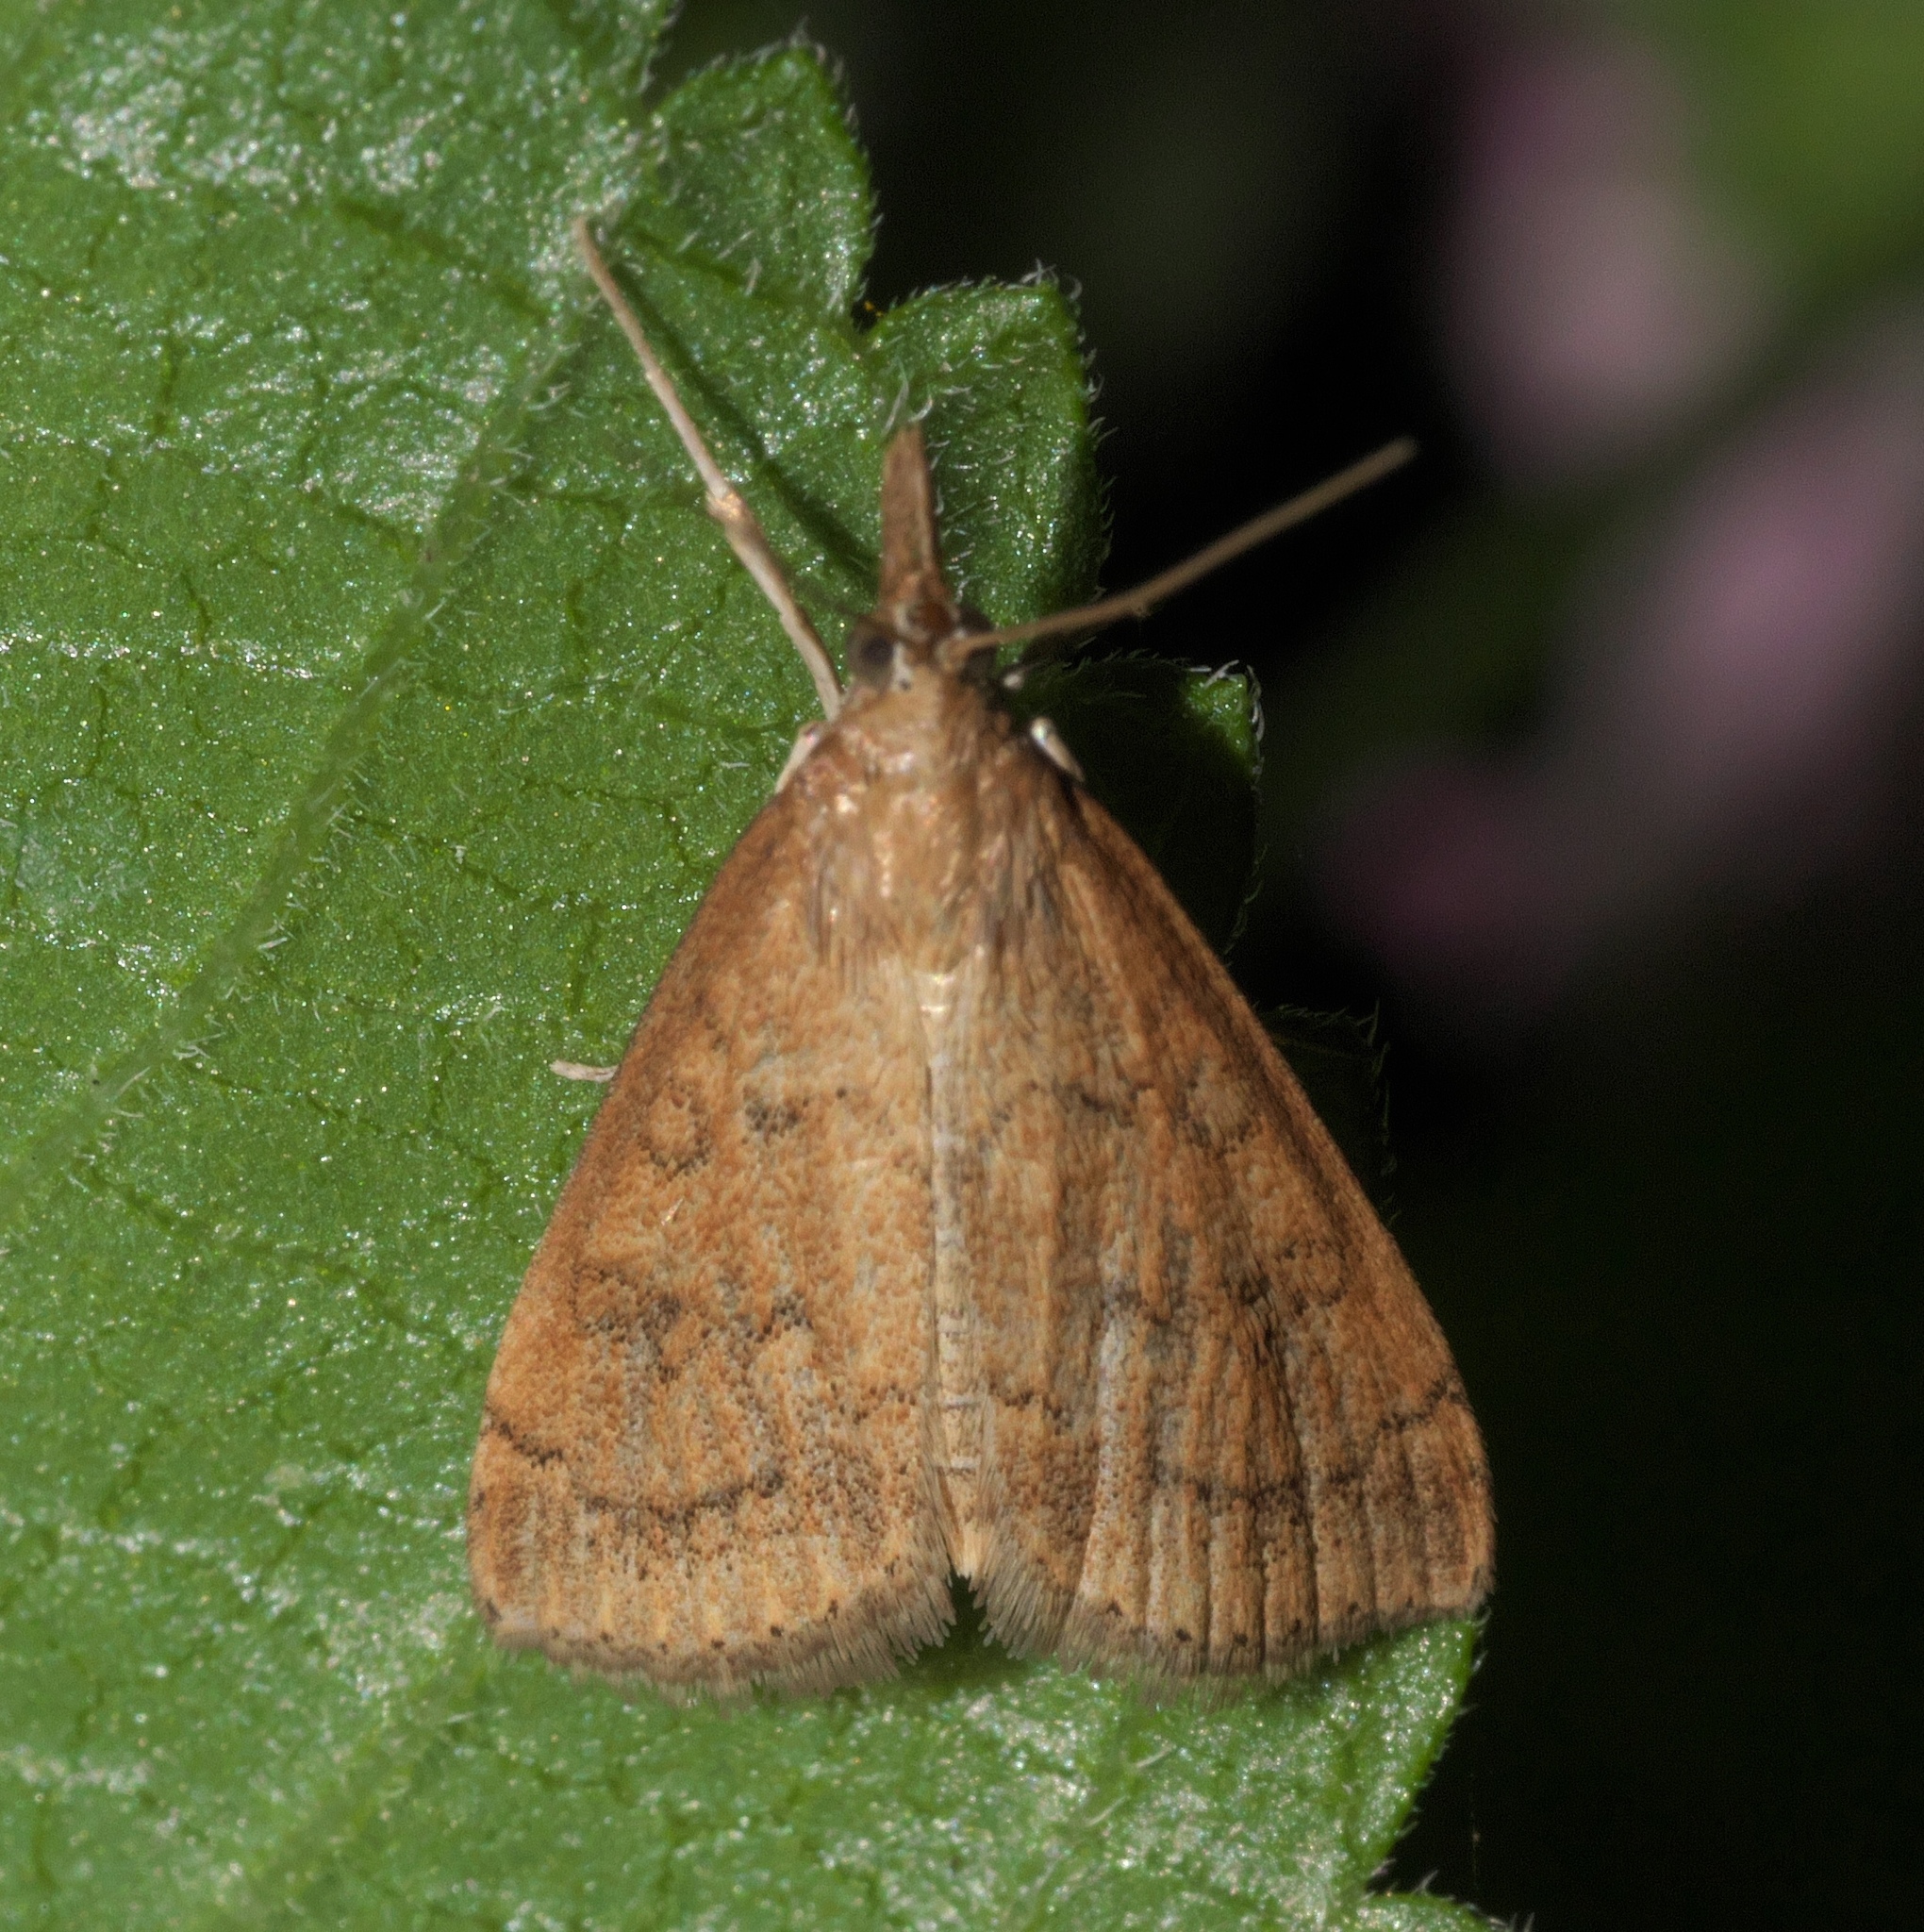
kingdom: Animalia
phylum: Arthropoda
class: Insecta
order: Lepidoptera
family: Crambidae
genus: Udea
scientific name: Udea rubigalis
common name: Celery leaftier moth
